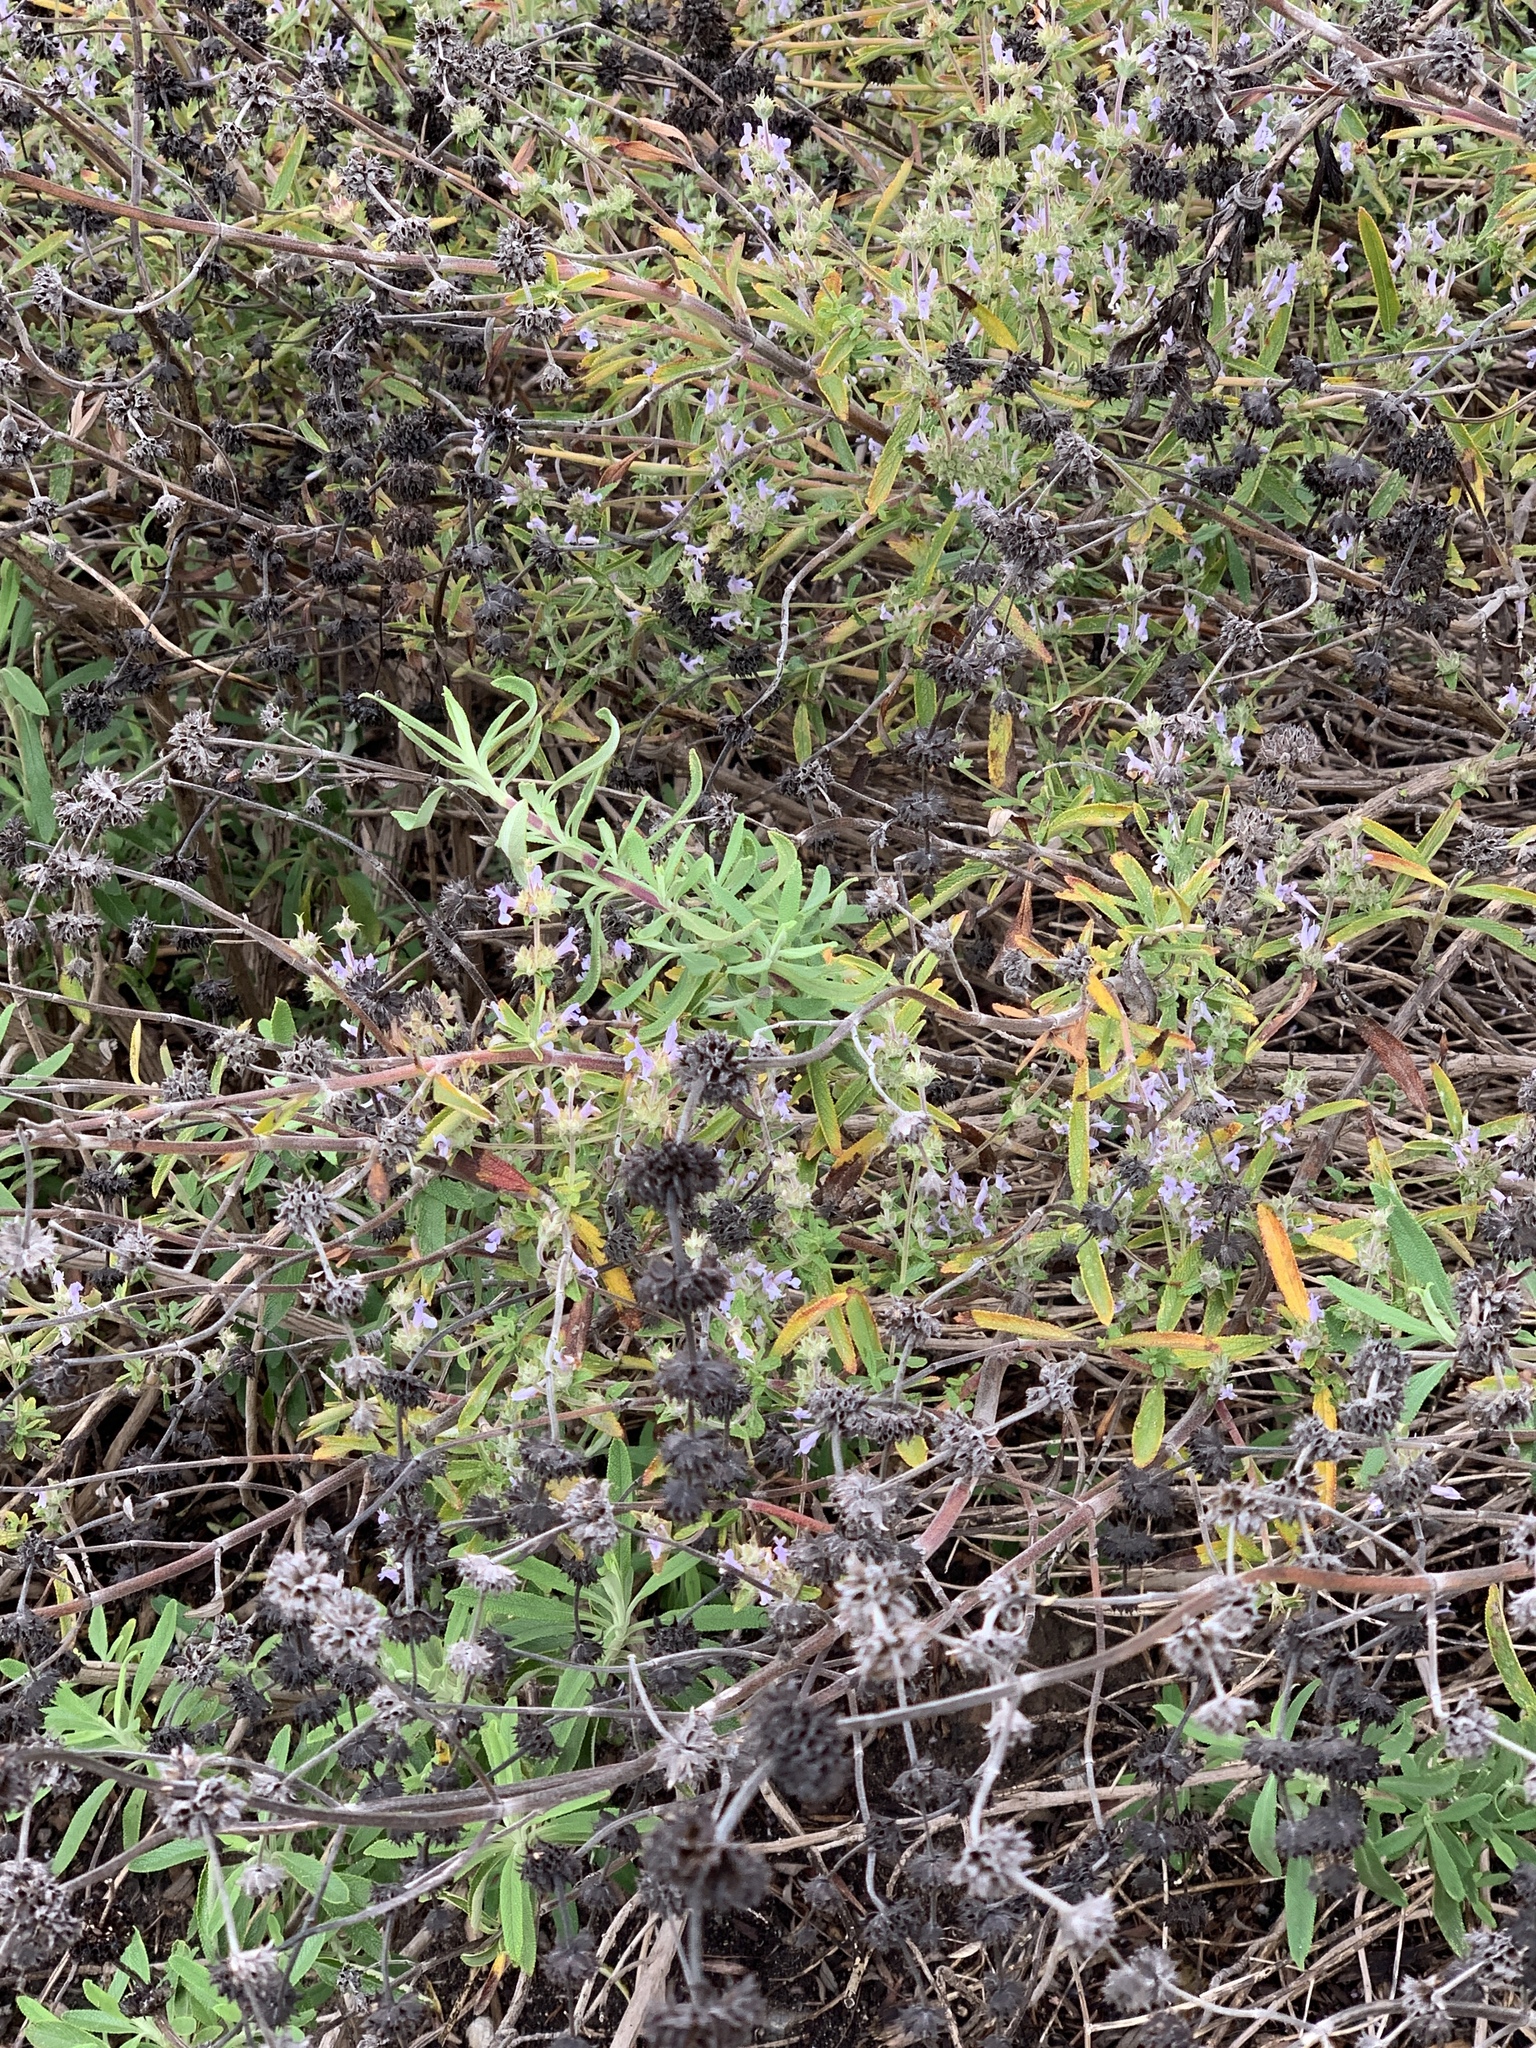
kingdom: Plantae
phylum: Tracheophyta
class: Magnoliopsida
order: Lamiales
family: Lamiaceae
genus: Salvia
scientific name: Salvia mellifera
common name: Black sage
